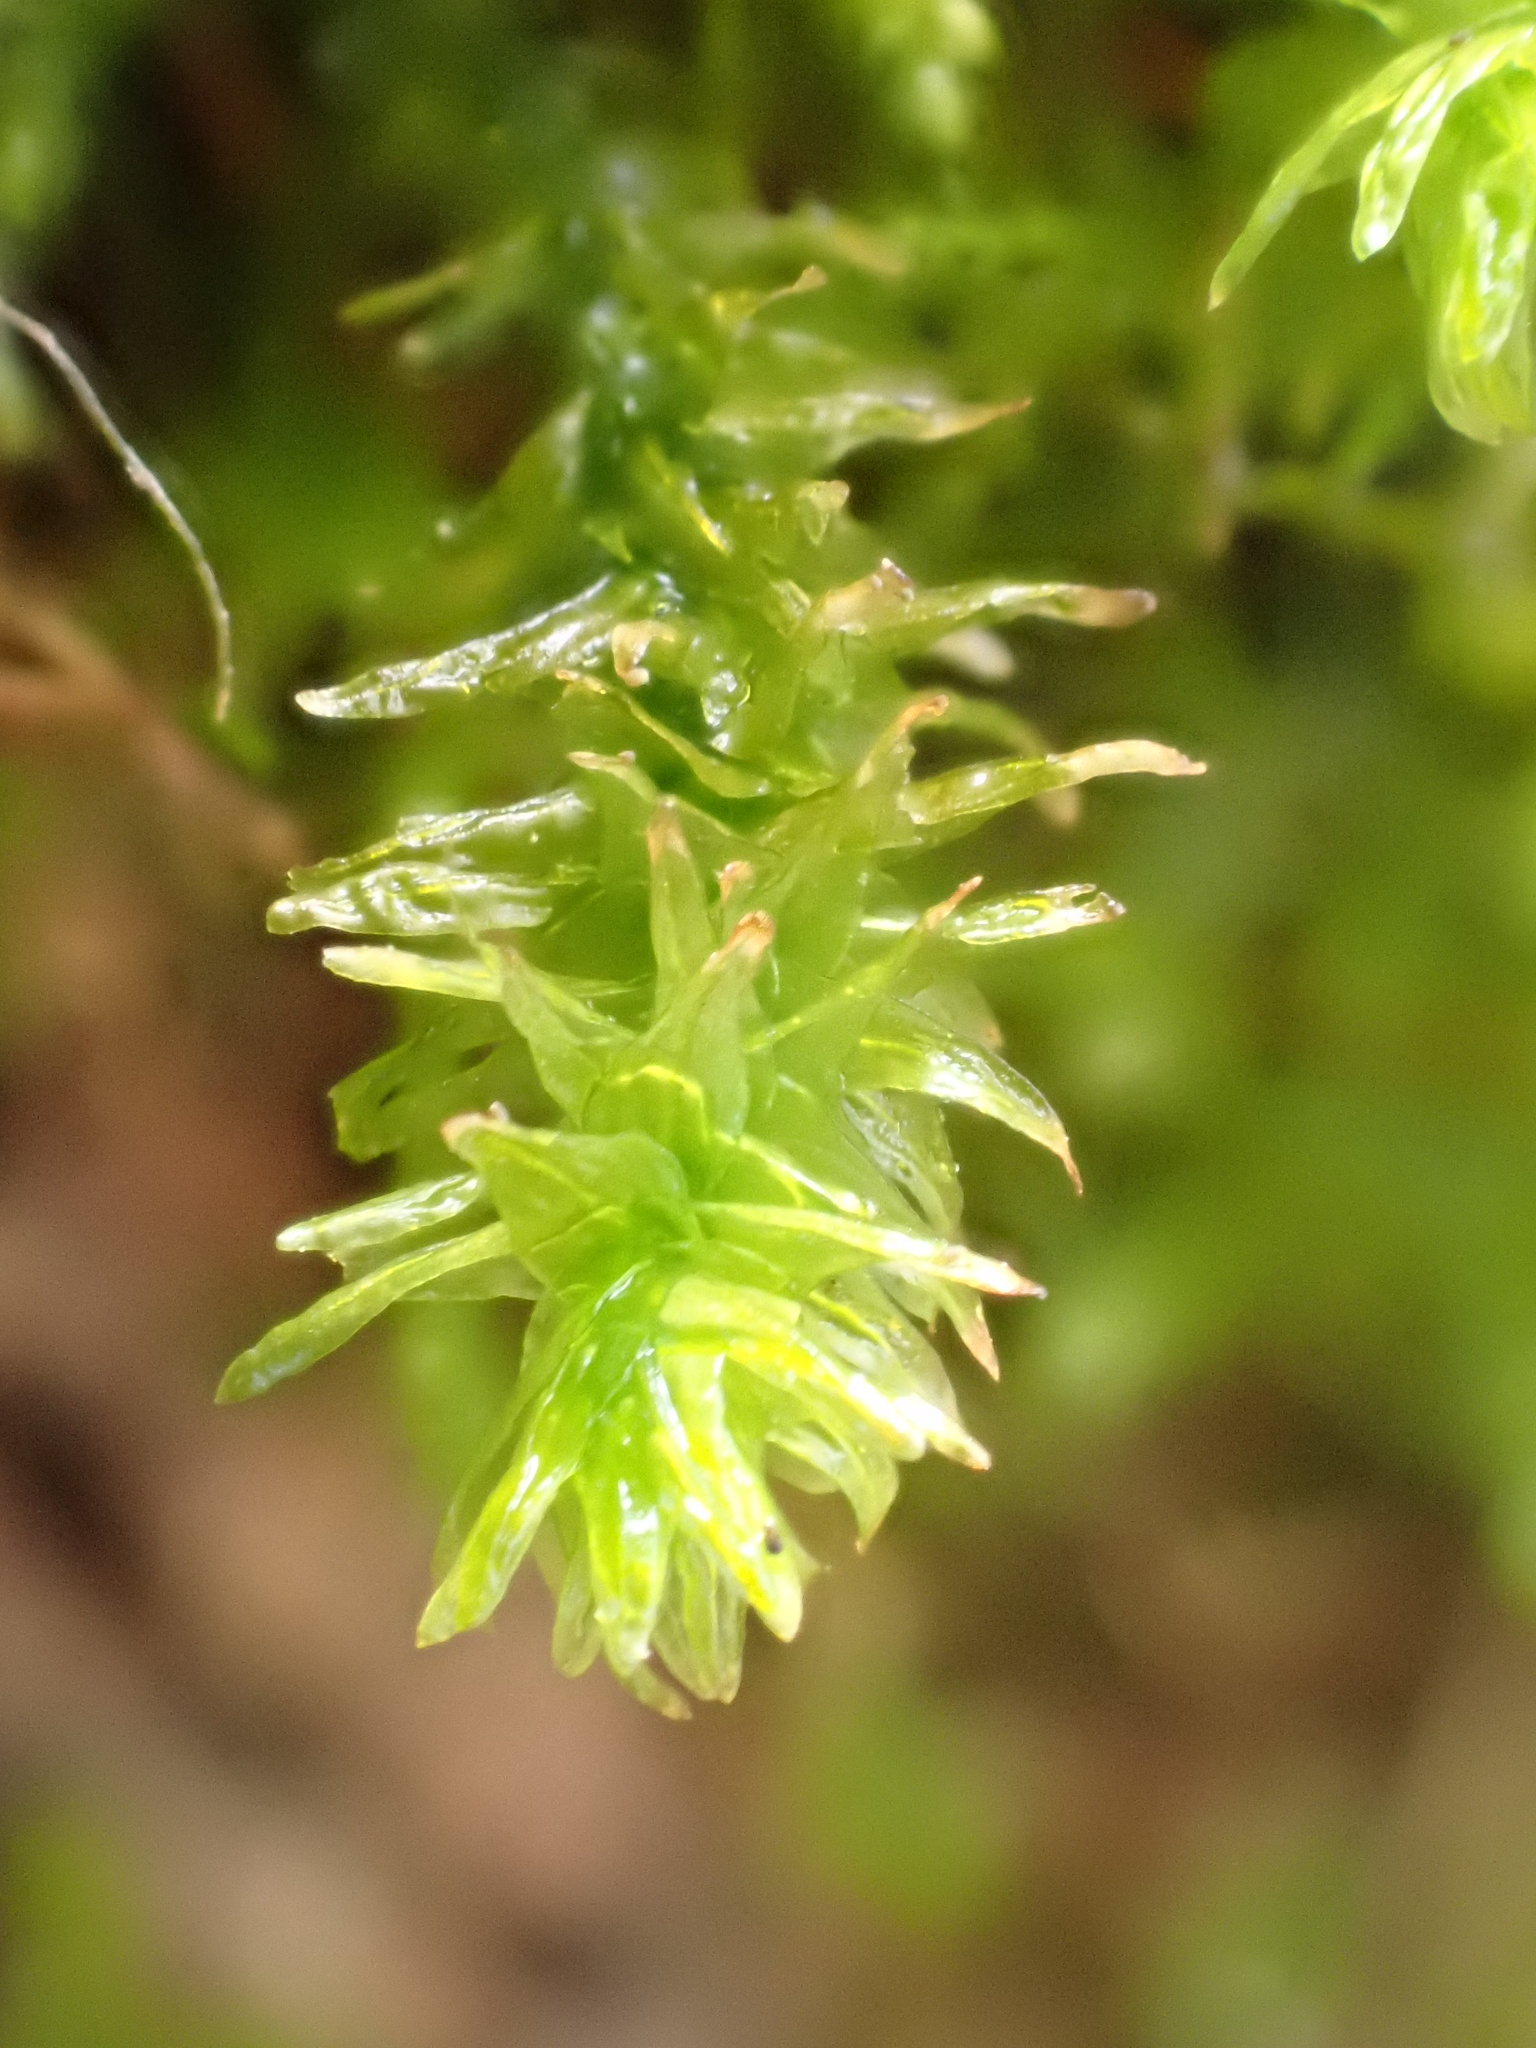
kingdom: Plantae
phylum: Bryophyta
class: Bryopsida
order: Hypnales
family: Anomodontaceae
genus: Anomodon
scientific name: Anomodon viticulosus
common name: Tall anomodon
